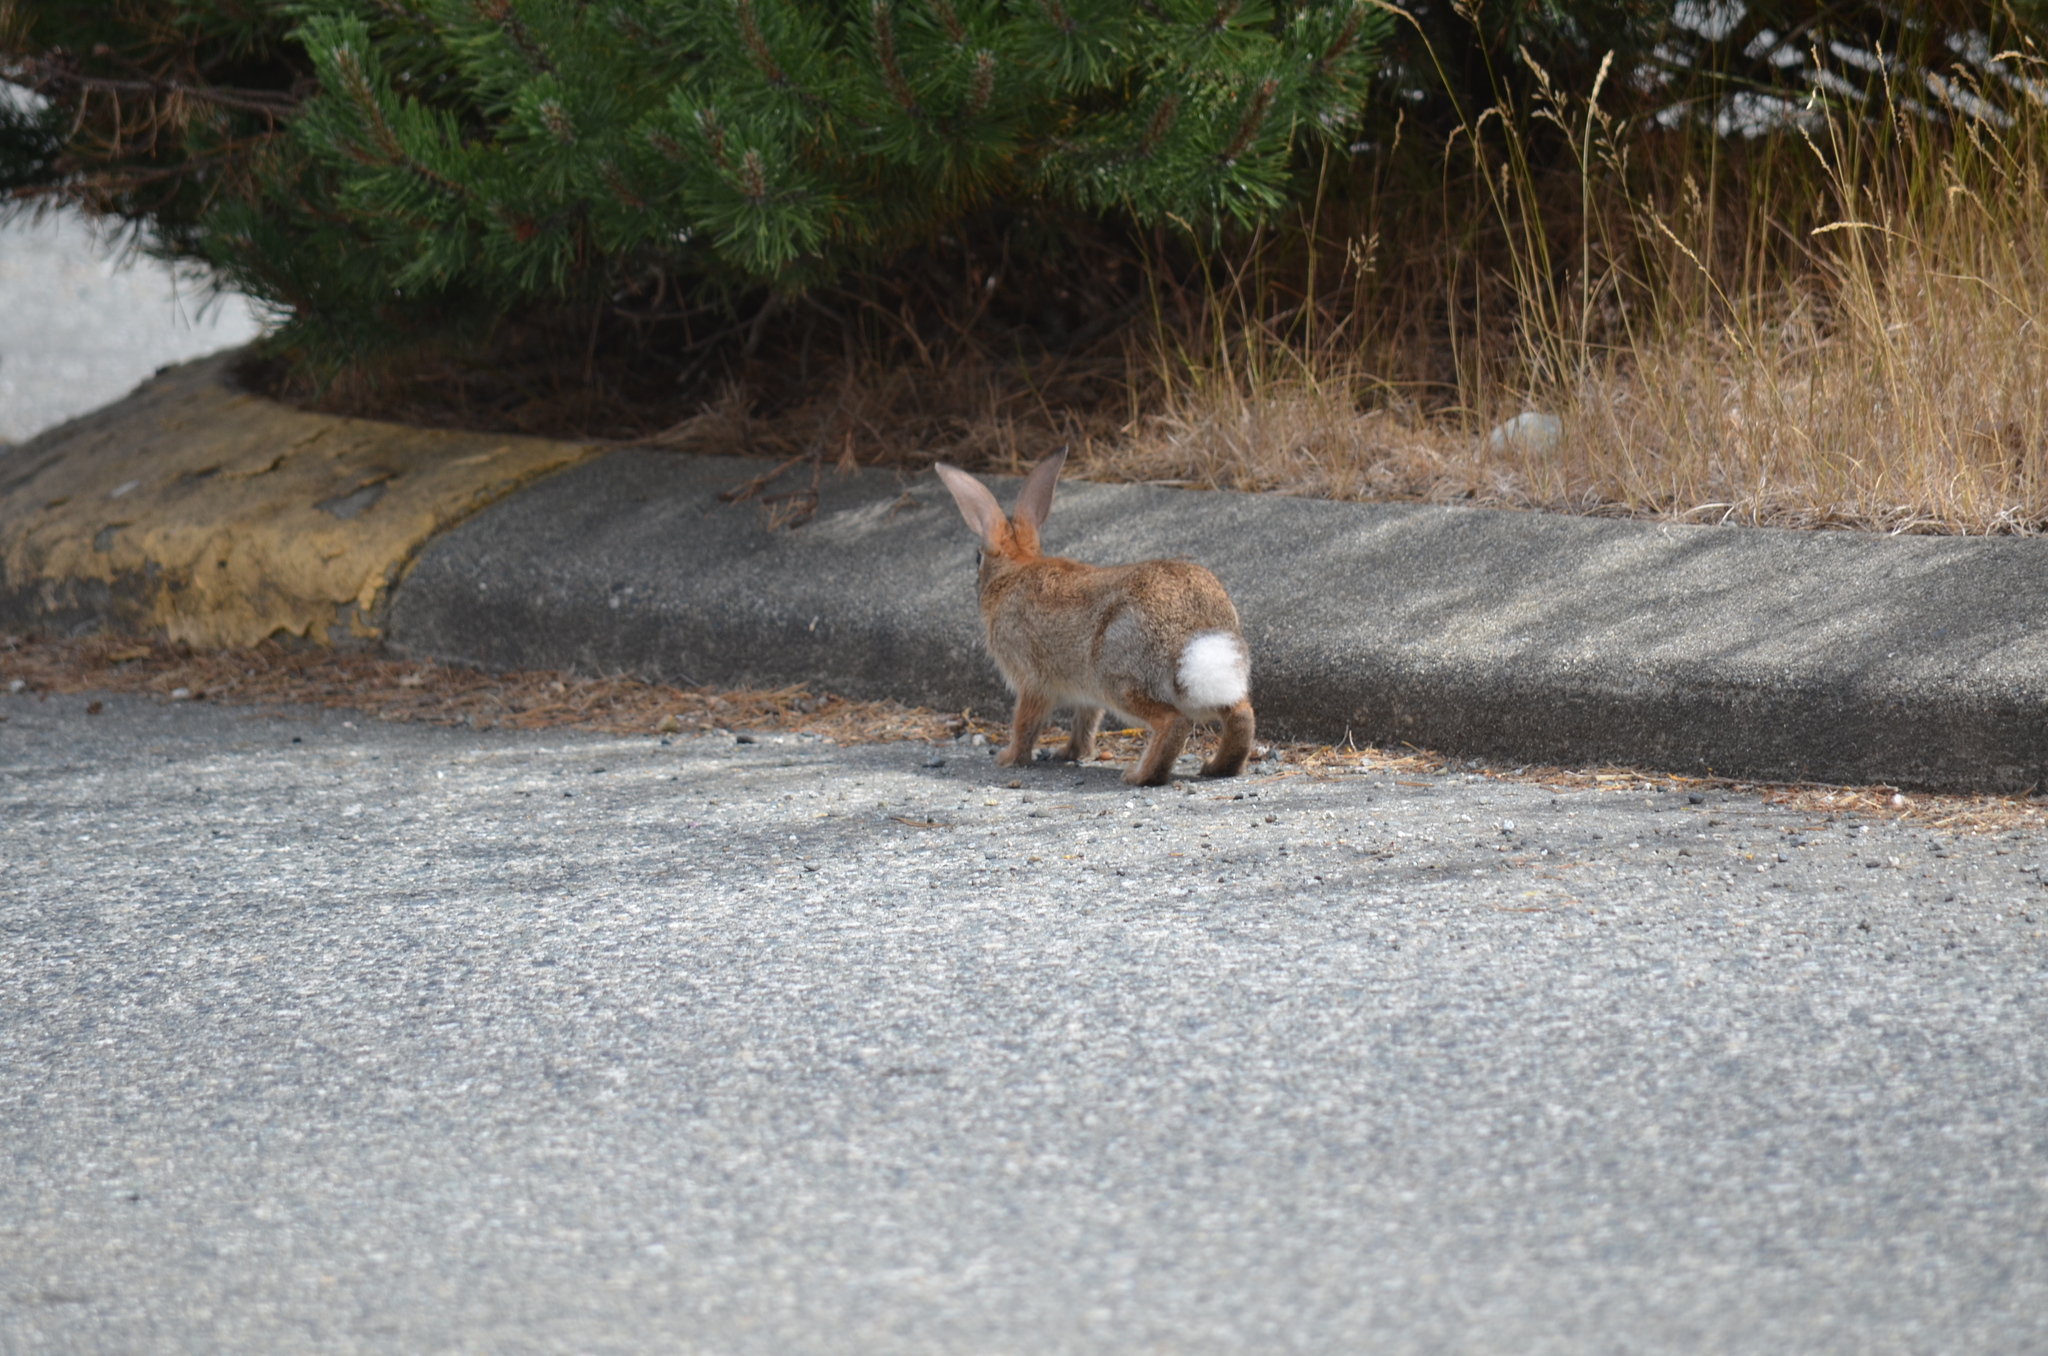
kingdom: Animalia
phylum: Chordata
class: Mammalia
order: Lagomorpha
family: Leporidae
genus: Sylvilagus
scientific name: Sylvilagus floridanus
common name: Eastern cottontail
